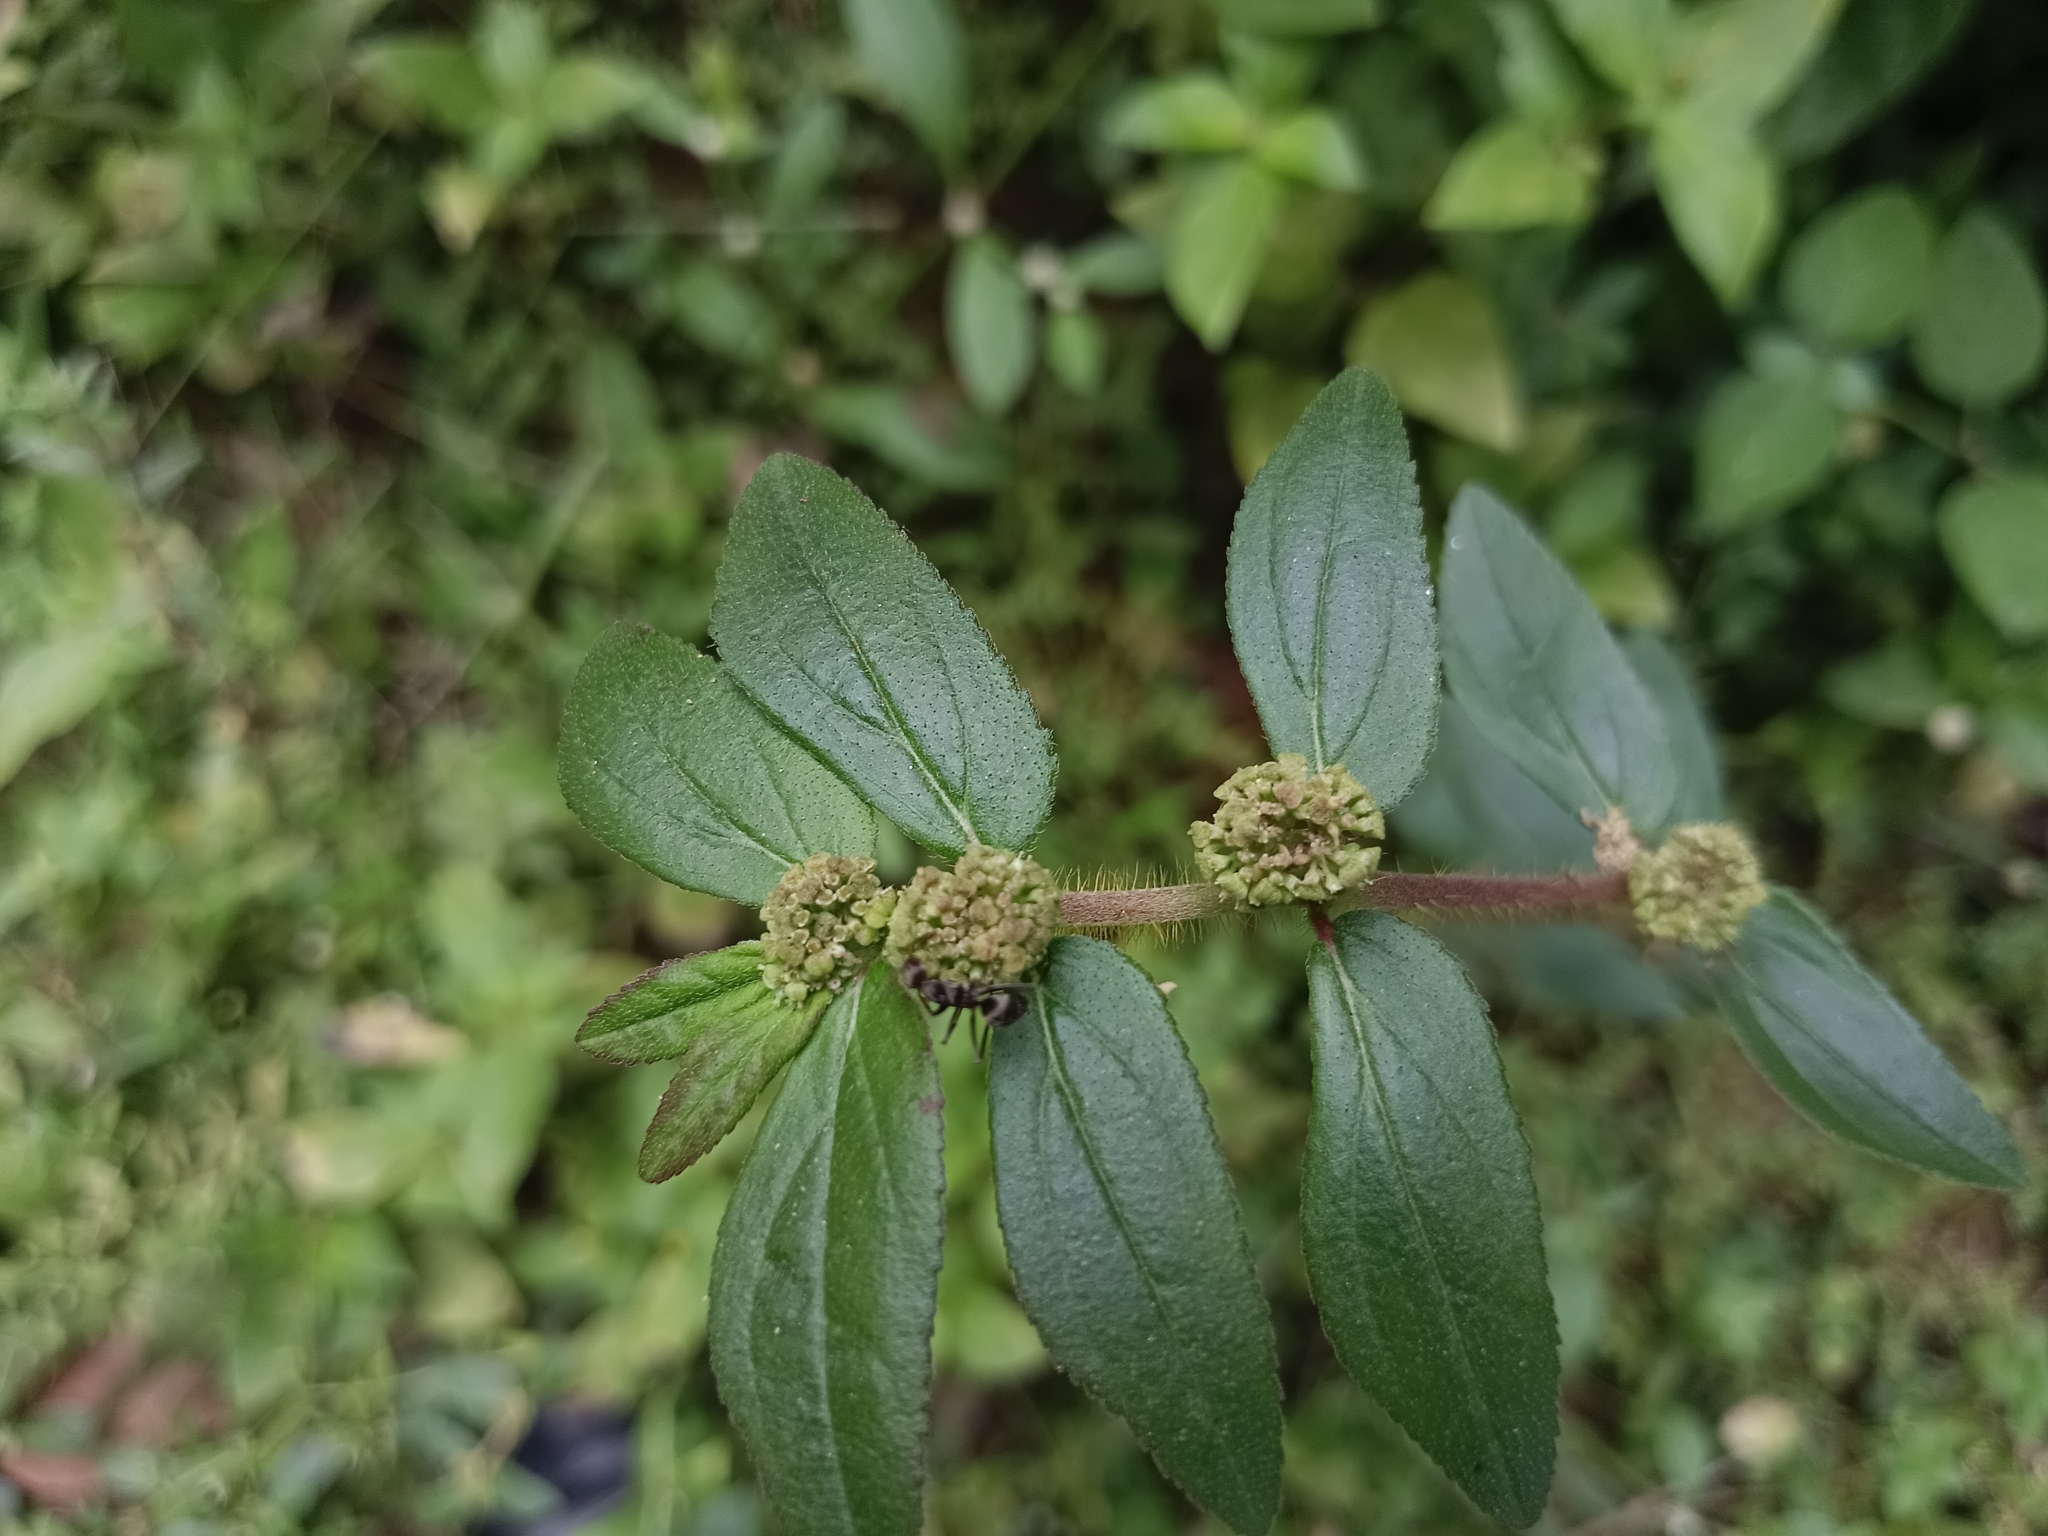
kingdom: Plantae
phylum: Tracheophyta
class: Magnoliopsida
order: Malpighiales
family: Euphorbiaceae
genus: Euphorbia
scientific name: Euphorbia hirta
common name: Pillpod sandmat
